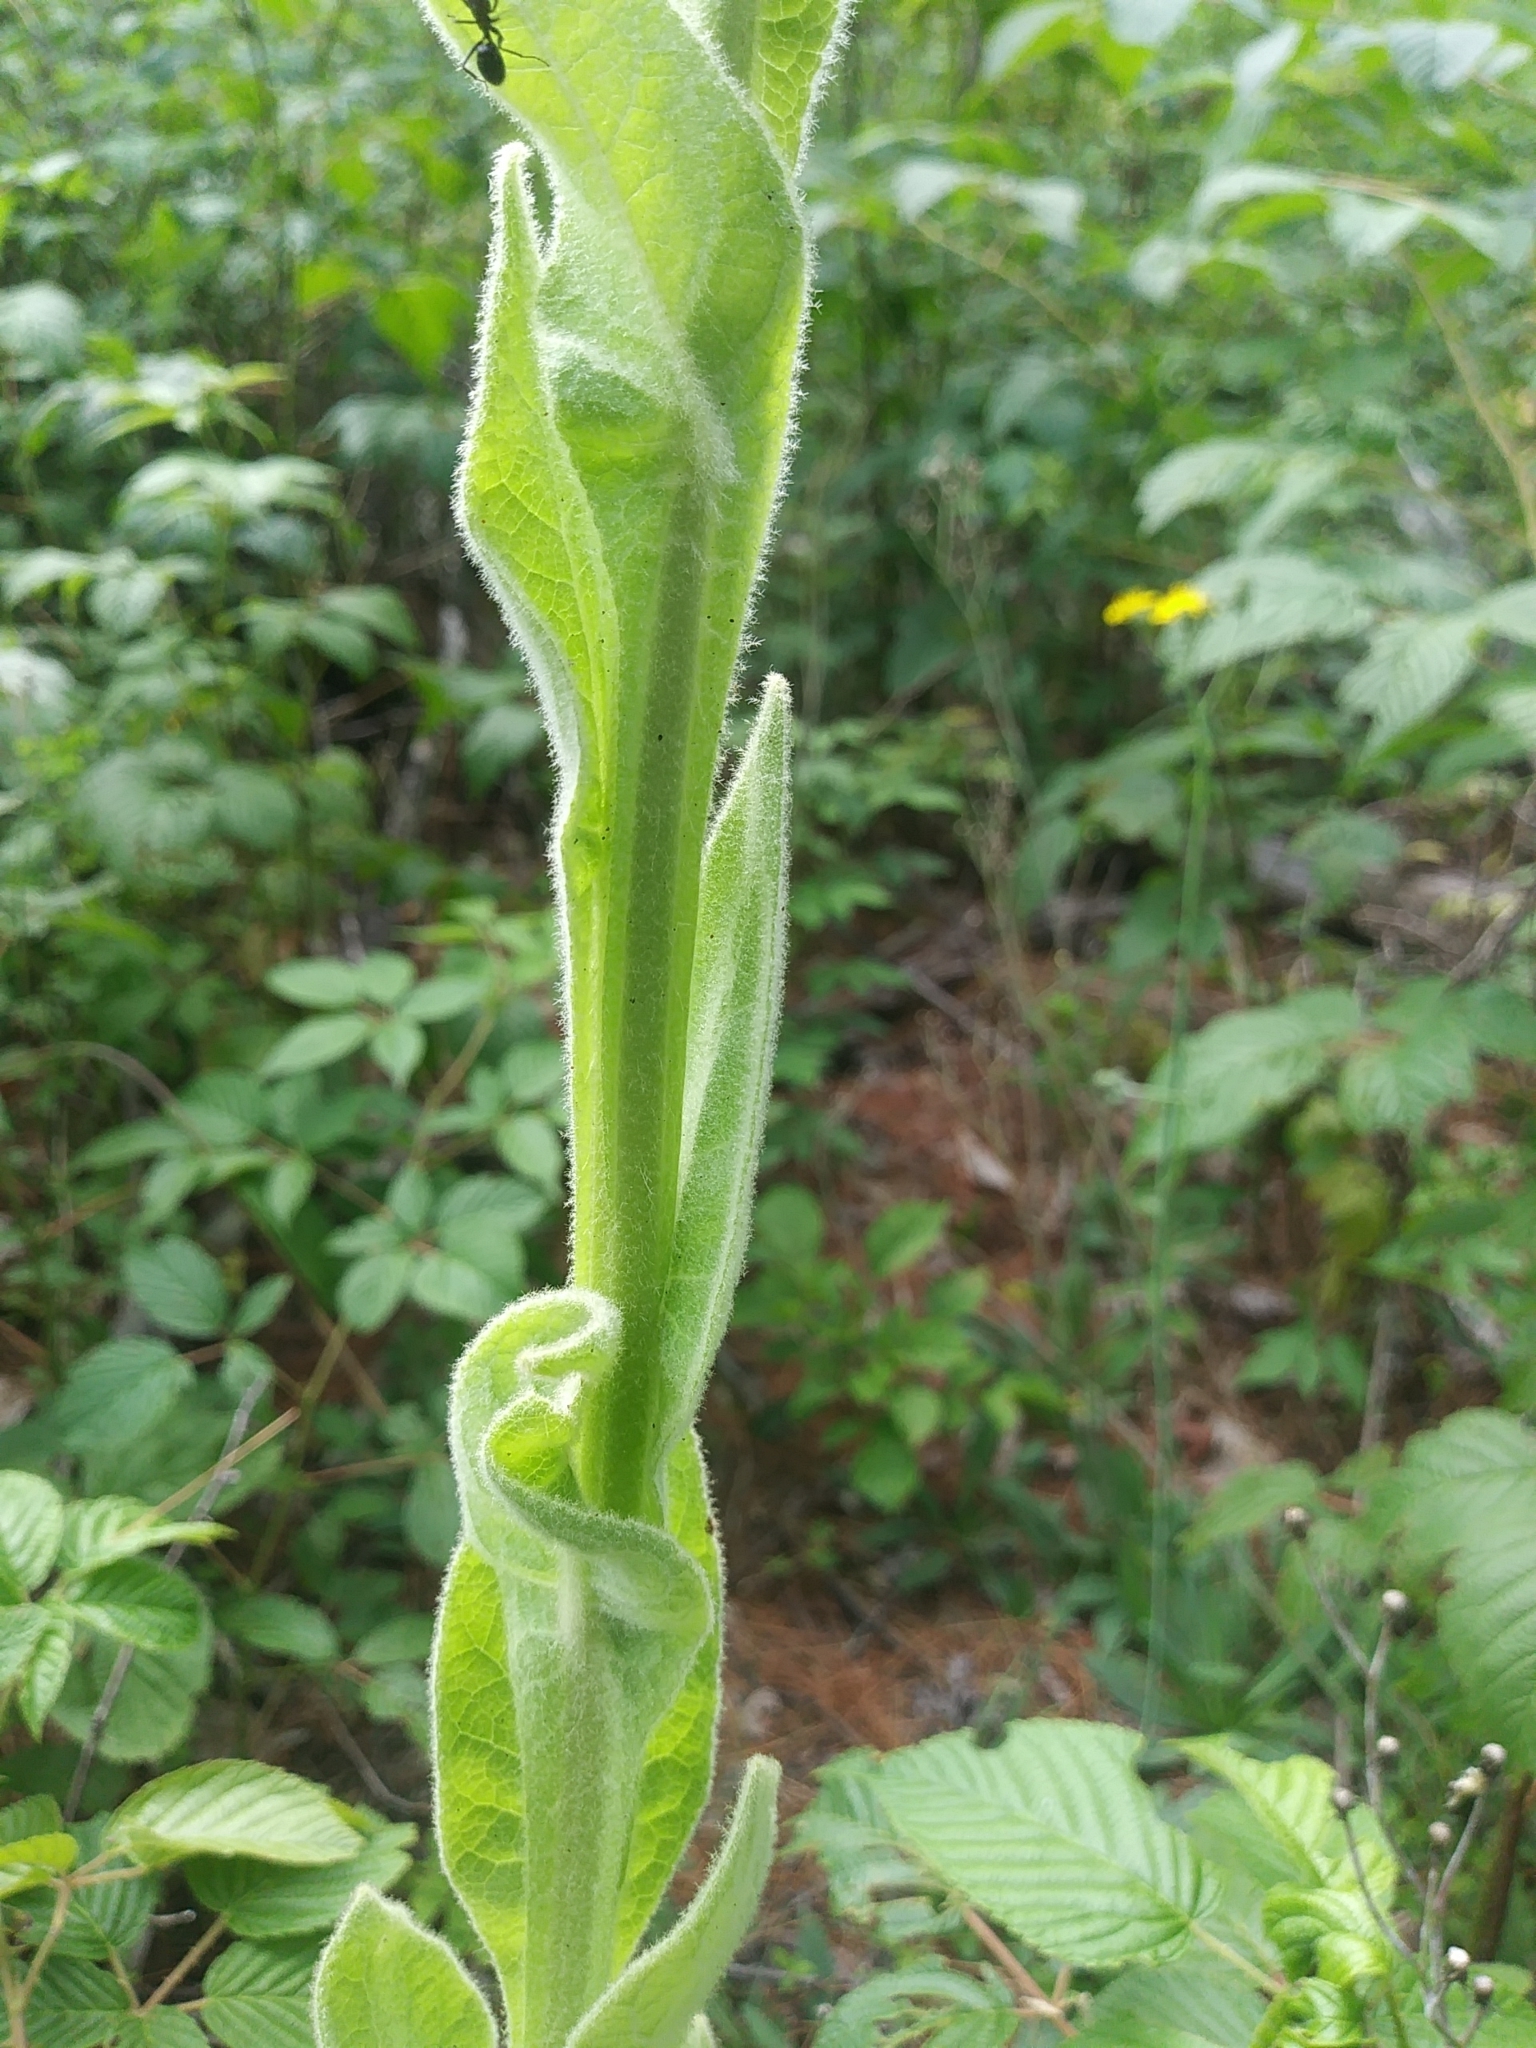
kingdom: Plantae
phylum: Tracheophyta
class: Magnoliopsida
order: Lamiales
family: Scrophulariaceae
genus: Verbascum
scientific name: Verbascum thapsus
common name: Common mullein
